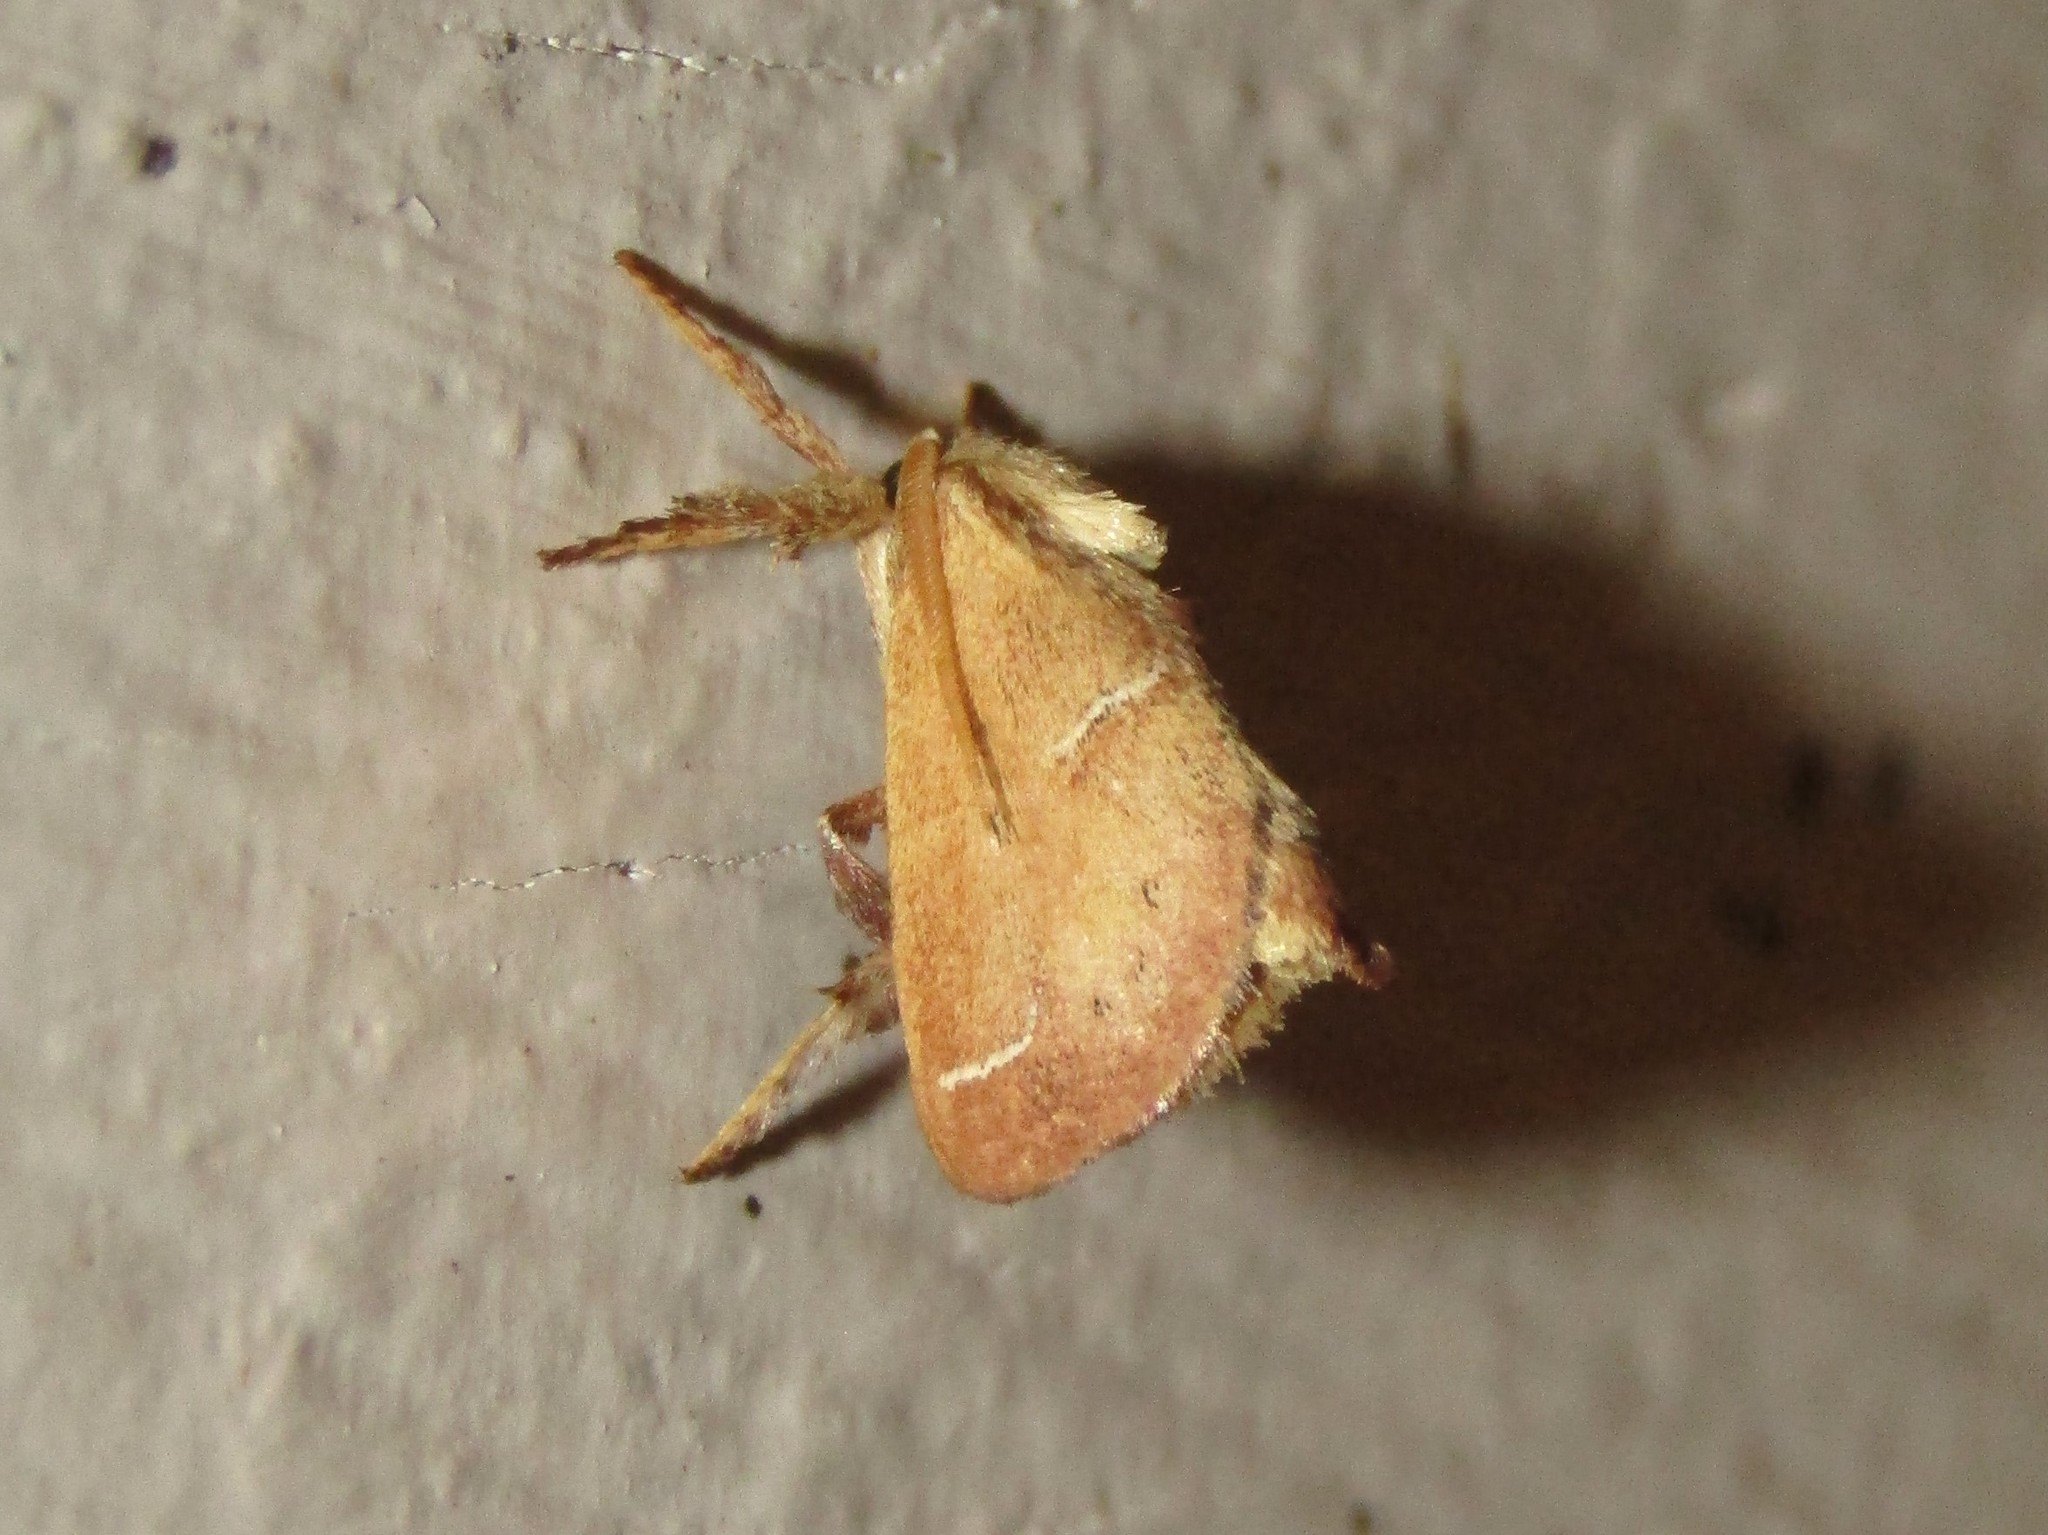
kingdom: Animalia
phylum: Arthropoda
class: Insecta
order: Lepidoptera
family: Limacodidae
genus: Adoneta
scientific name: Adoneta bicaudata
